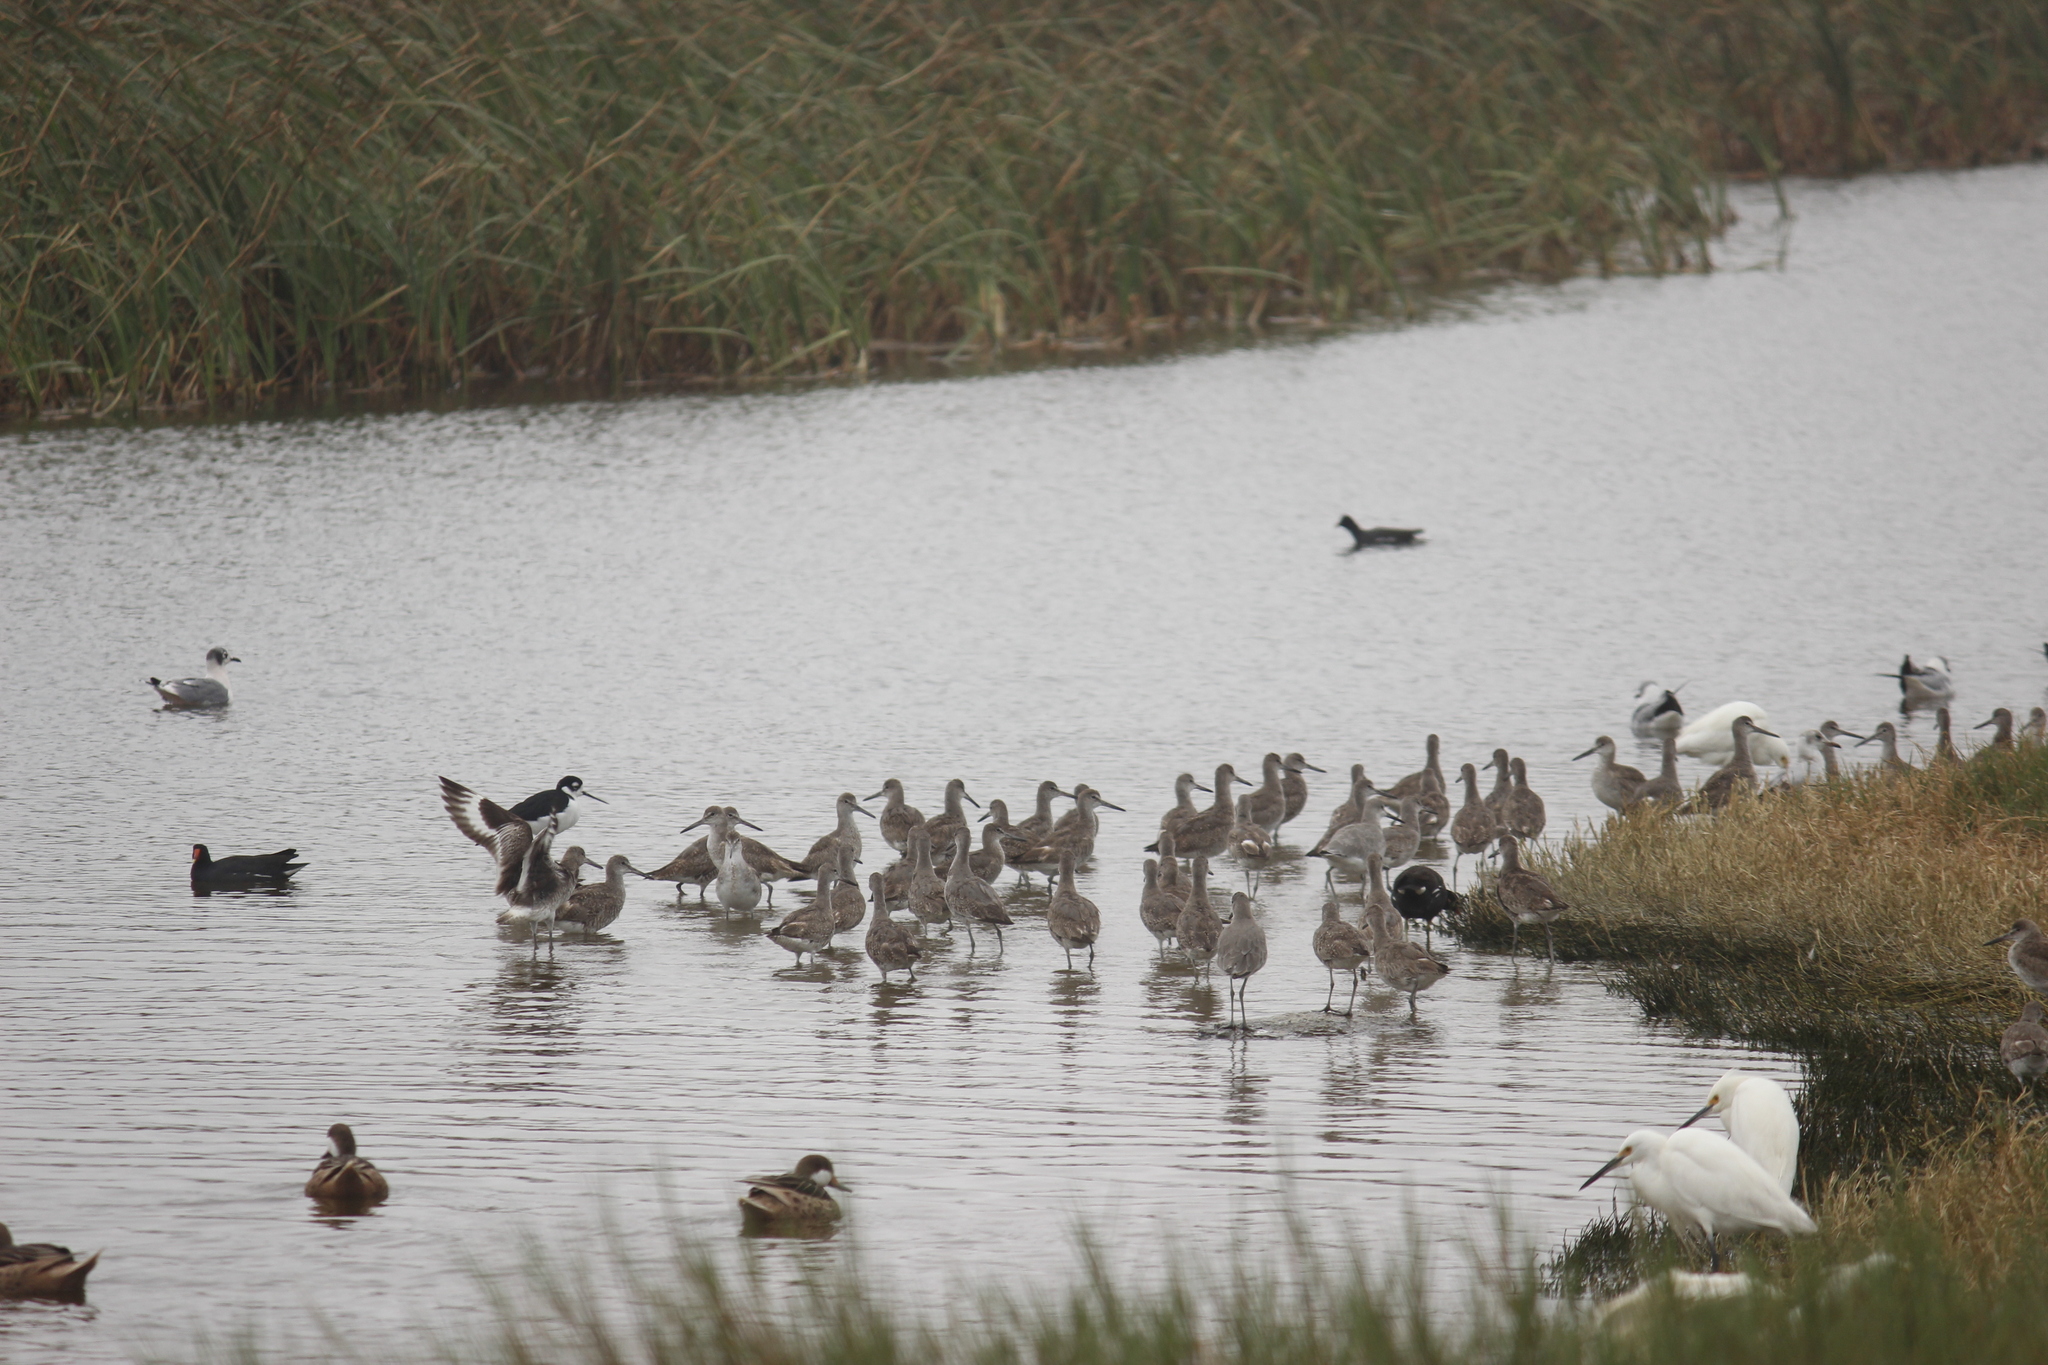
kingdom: Animalia
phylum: Chordata
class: Aves
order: Charadriiformes
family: Scolopacidae
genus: Tringa
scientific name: Tringa semipalmata
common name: Willet
